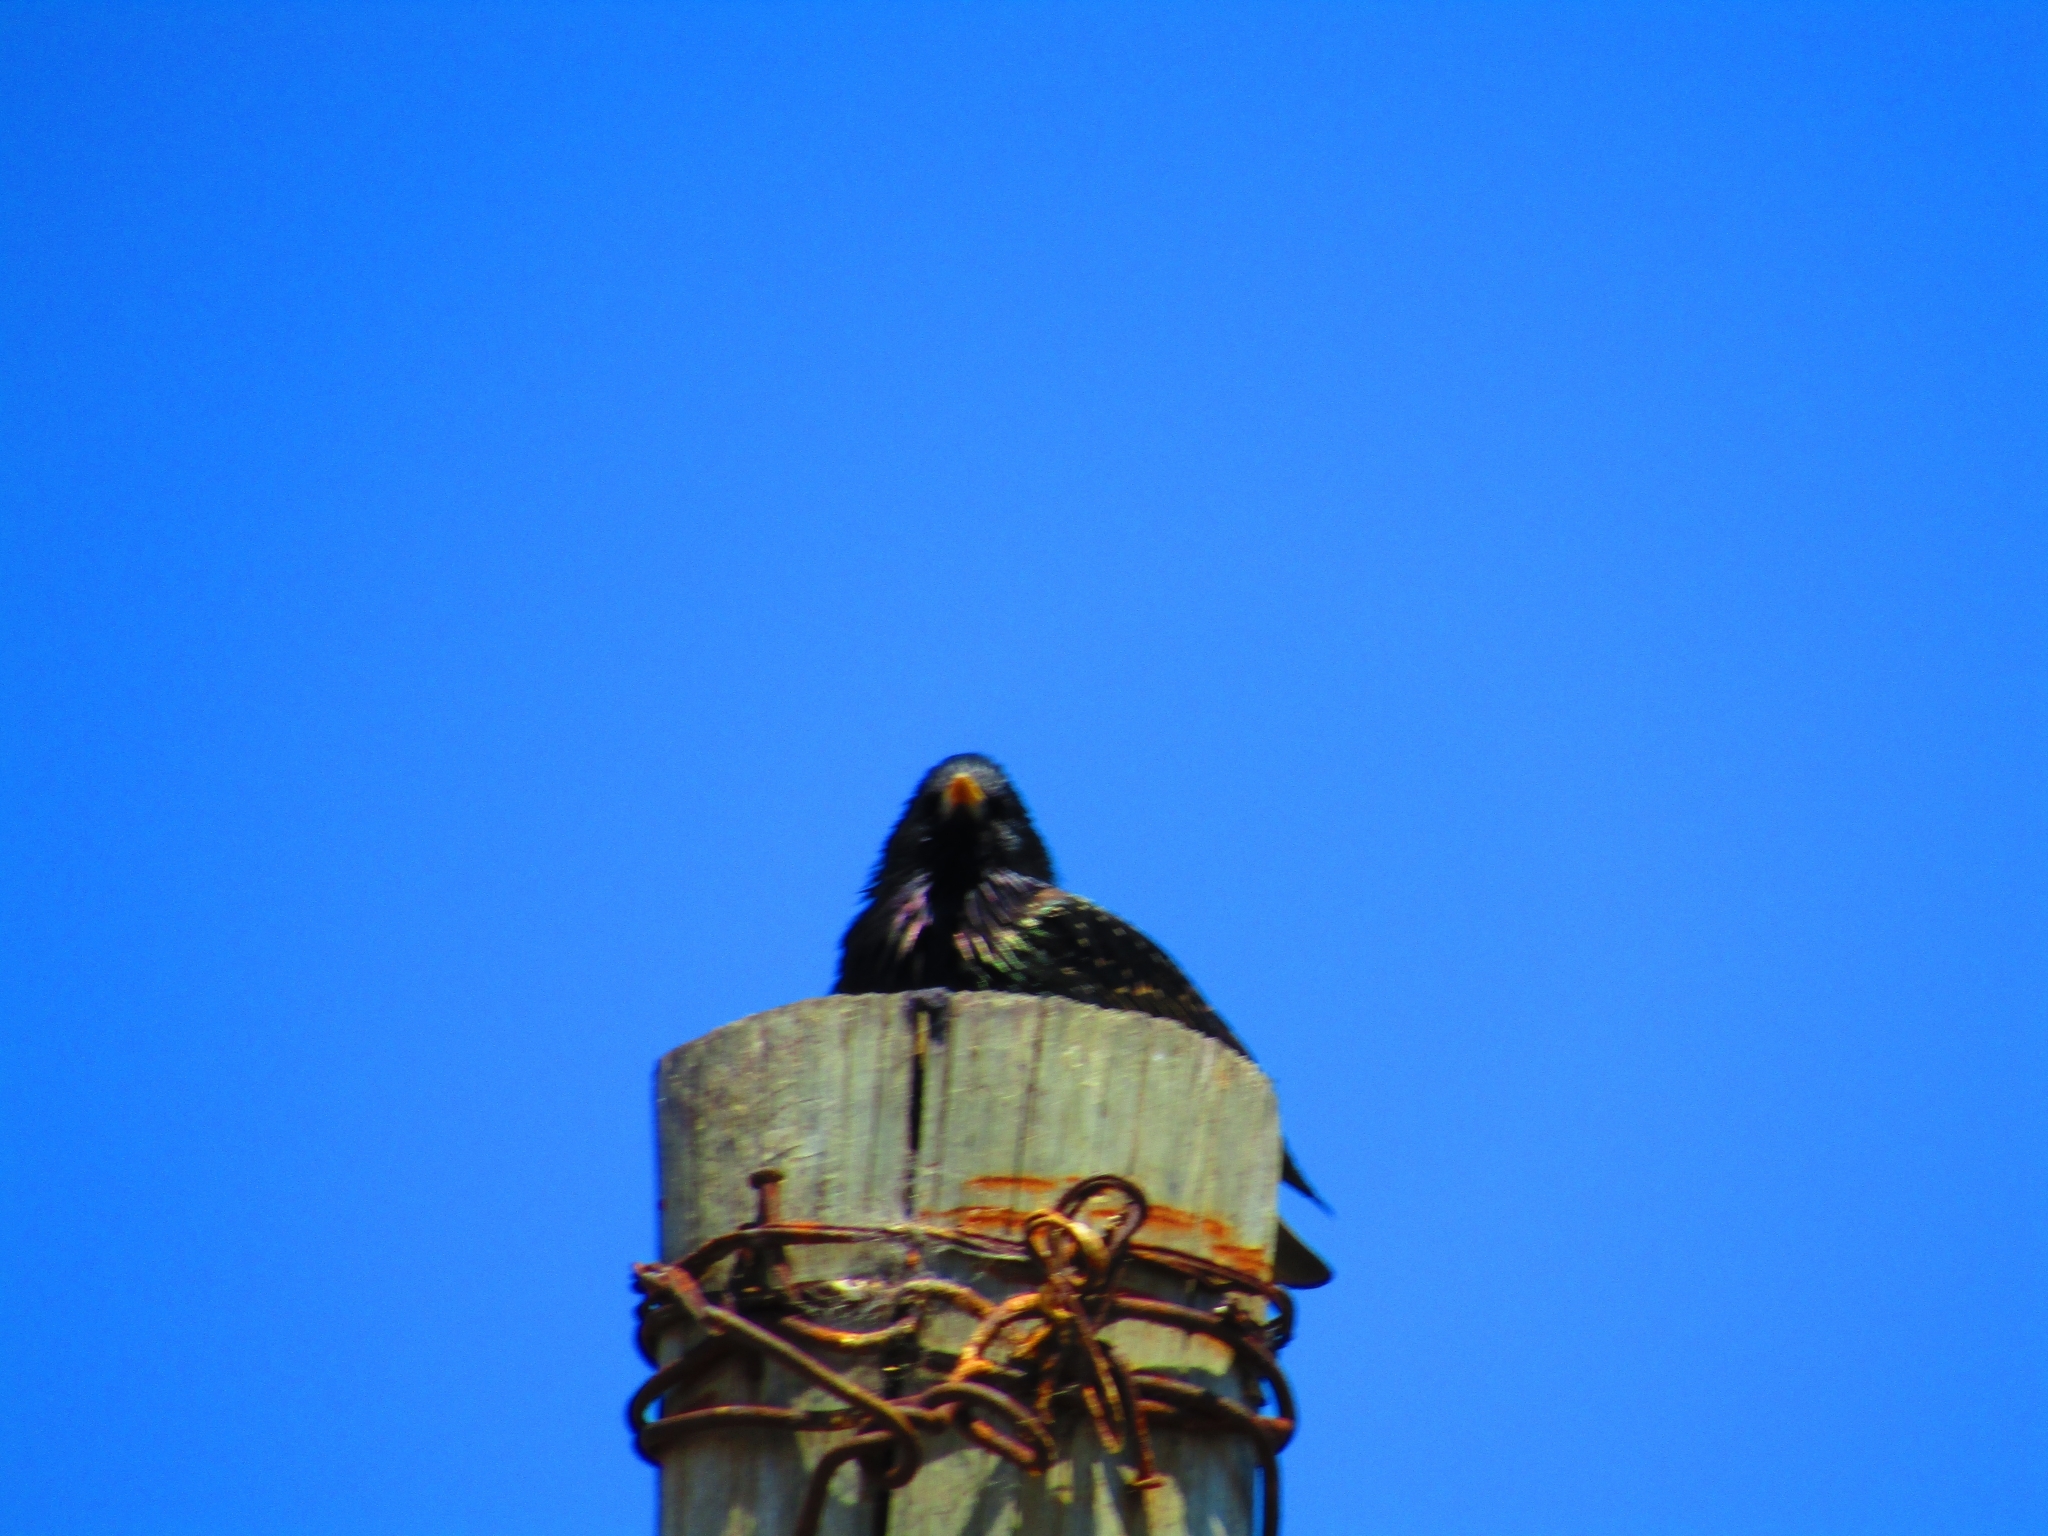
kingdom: Animalia
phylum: Chordata
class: Aves
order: Passeriformes
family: Sturnidae
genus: Sturnus
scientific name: Sturnus vulgaris
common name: Common starling
